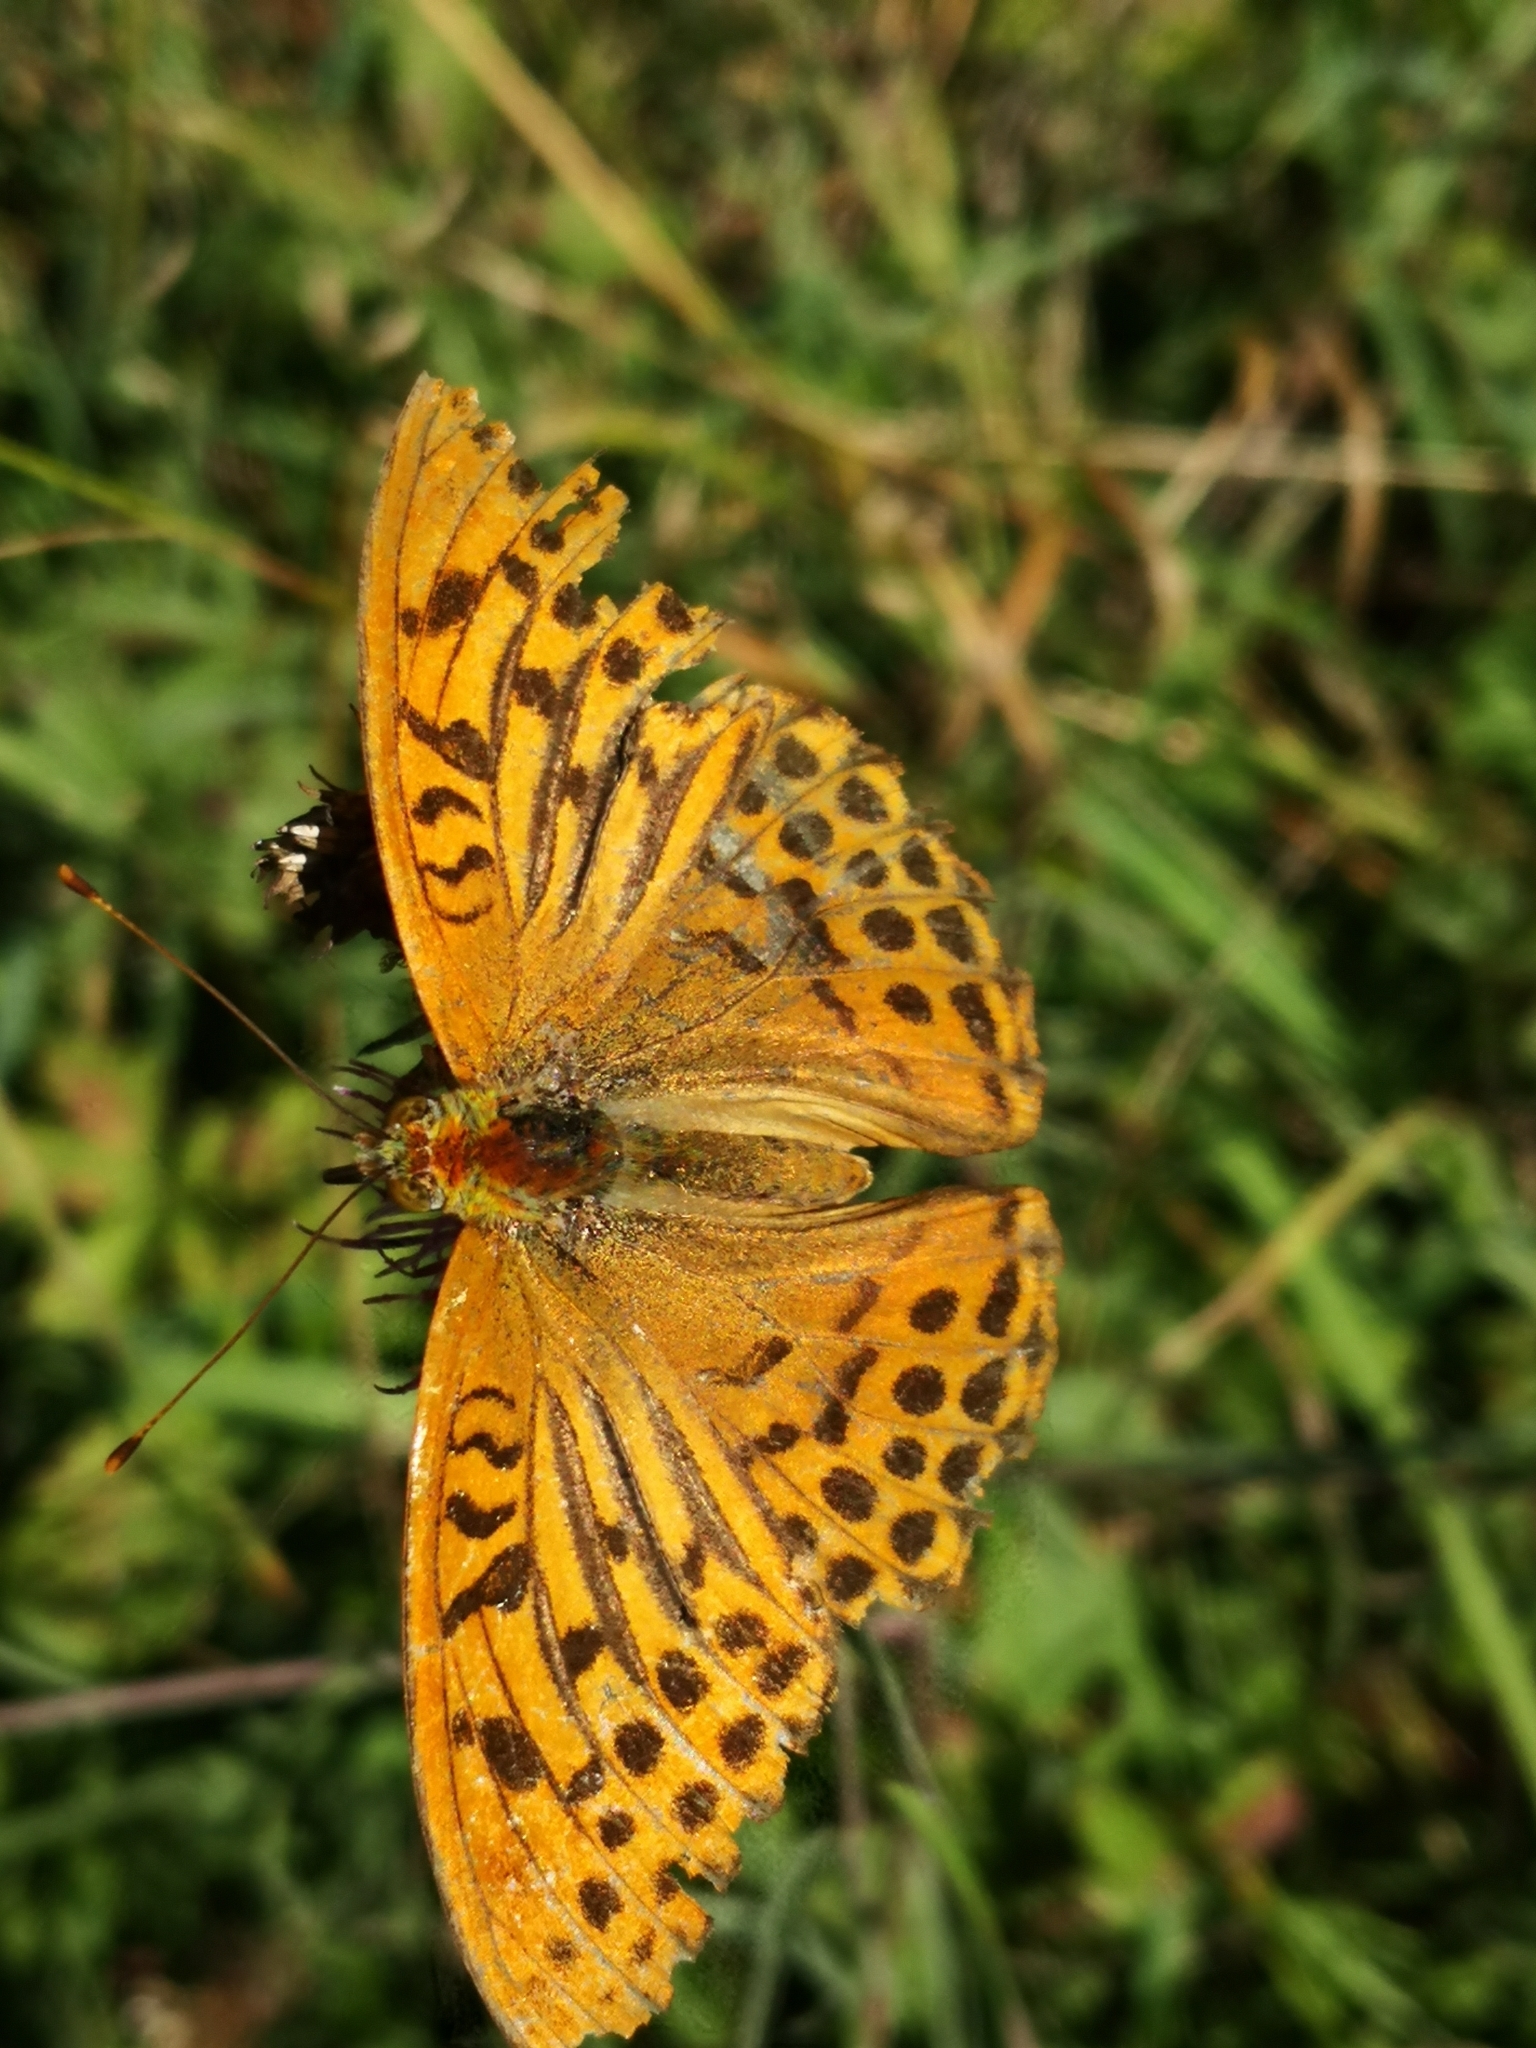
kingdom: Animalia
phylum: Arthropoda
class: Insecta
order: Lepidoptera
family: Nymphalidae
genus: Argynnis
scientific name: Argynnis paphia
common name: Silver-washed fritillary
